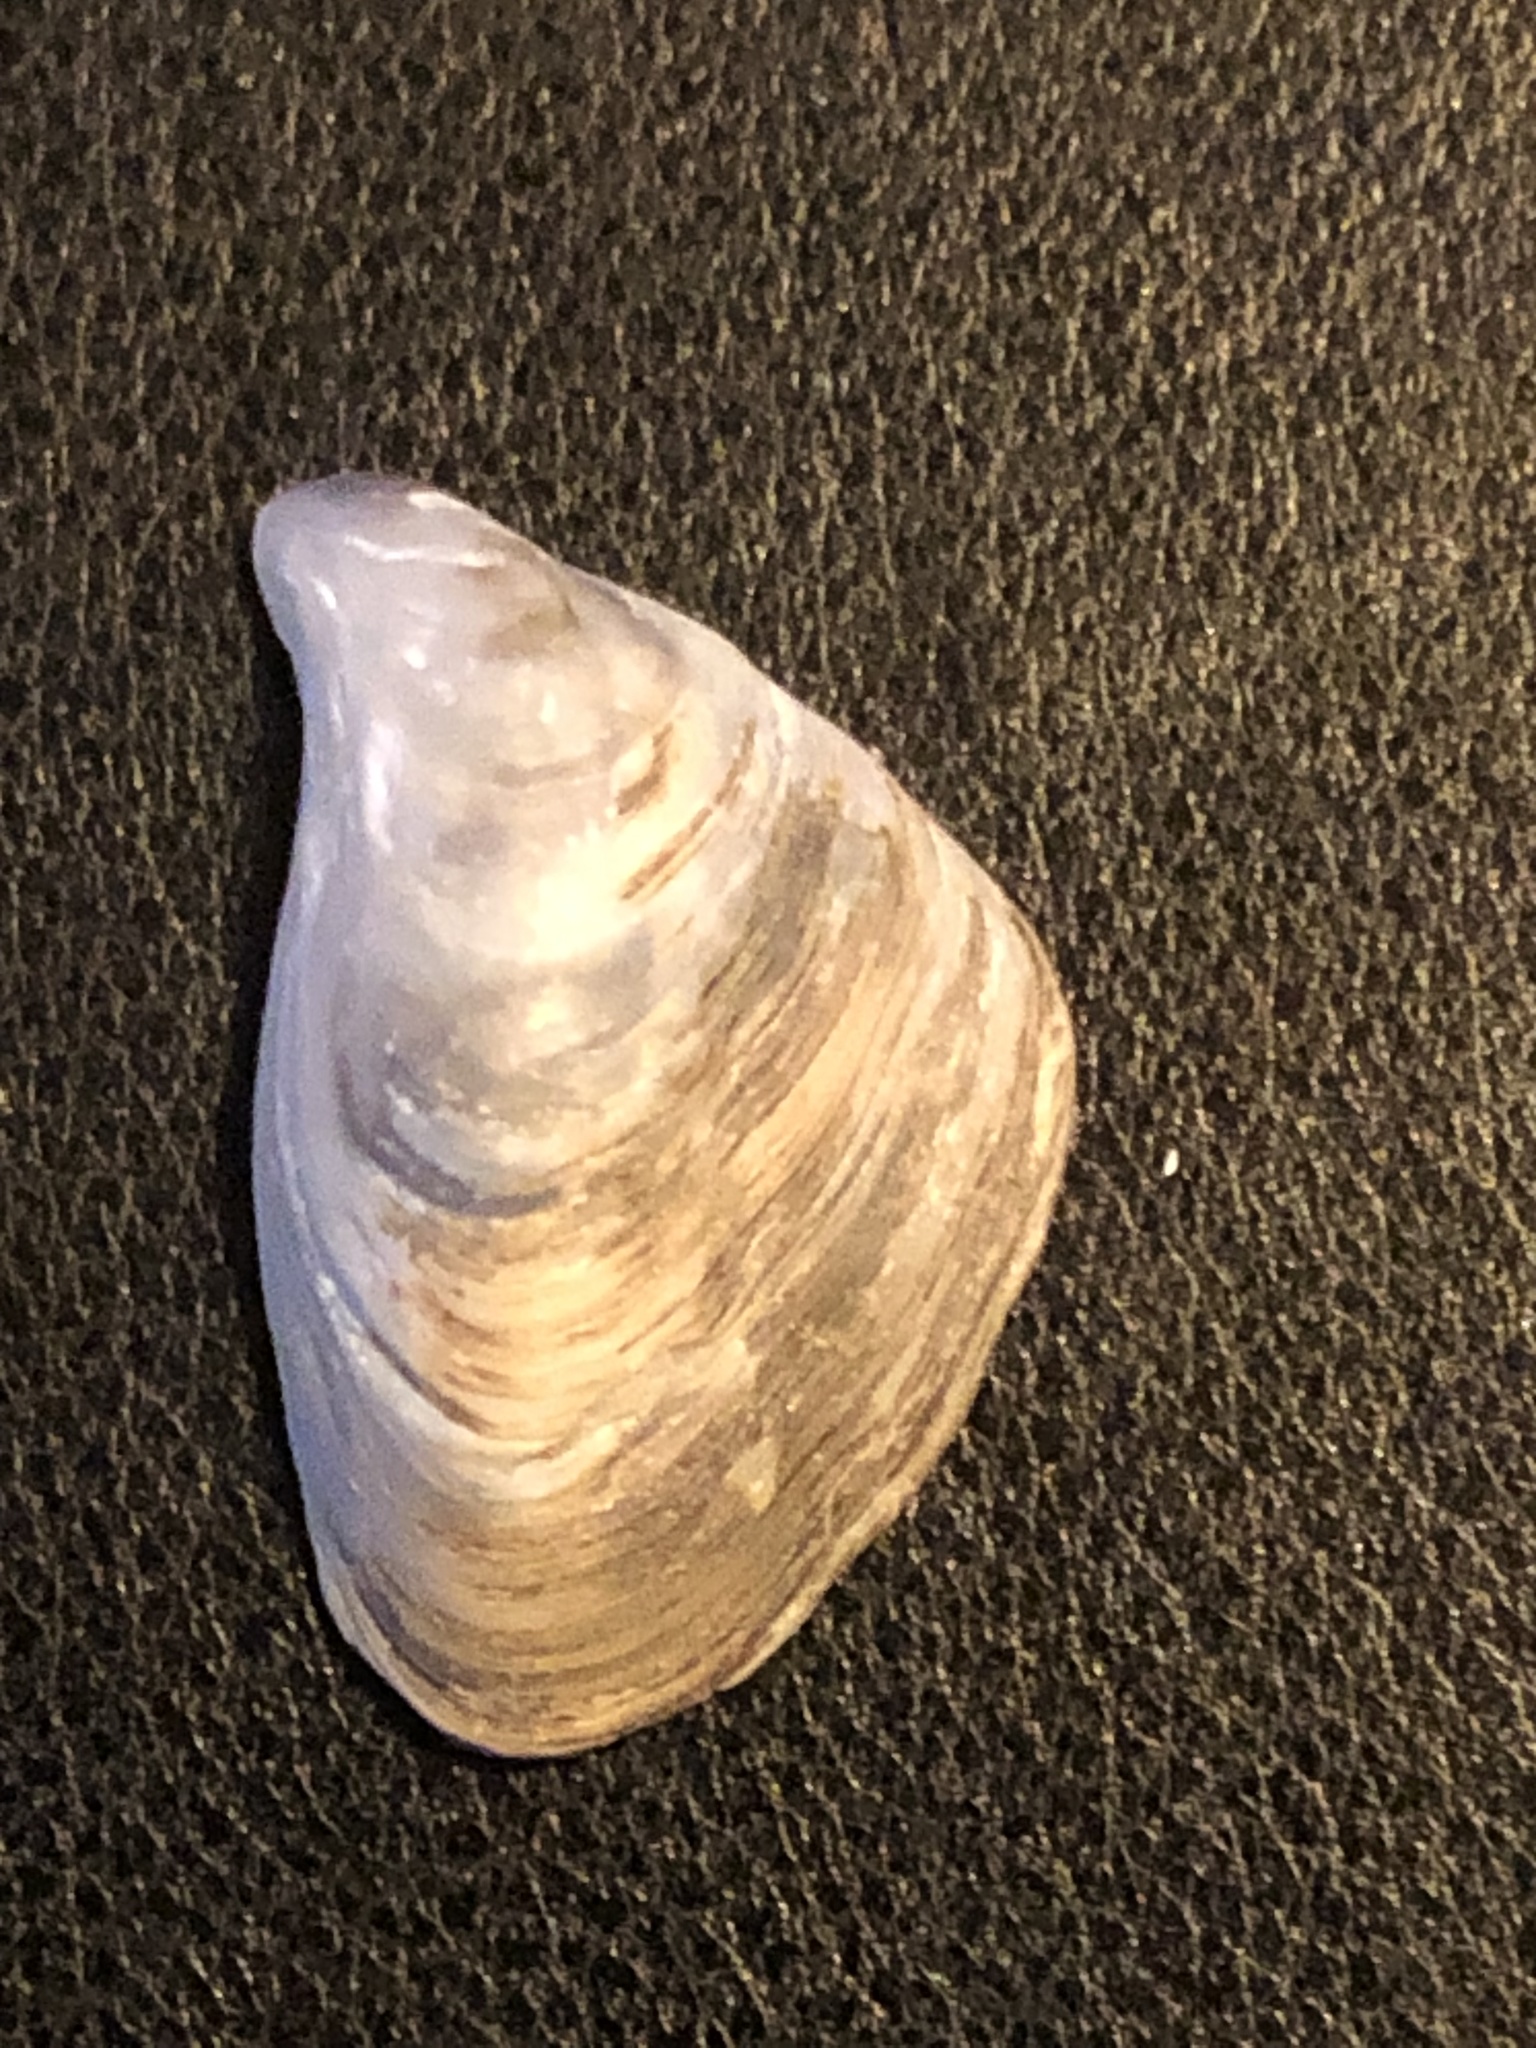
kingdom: Animalia
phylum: Mollusca
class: Bivalvia
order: Myida
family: Dreissenidae
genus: Dreissena
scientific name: Dreissena bugensis
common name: Quagga mussel
